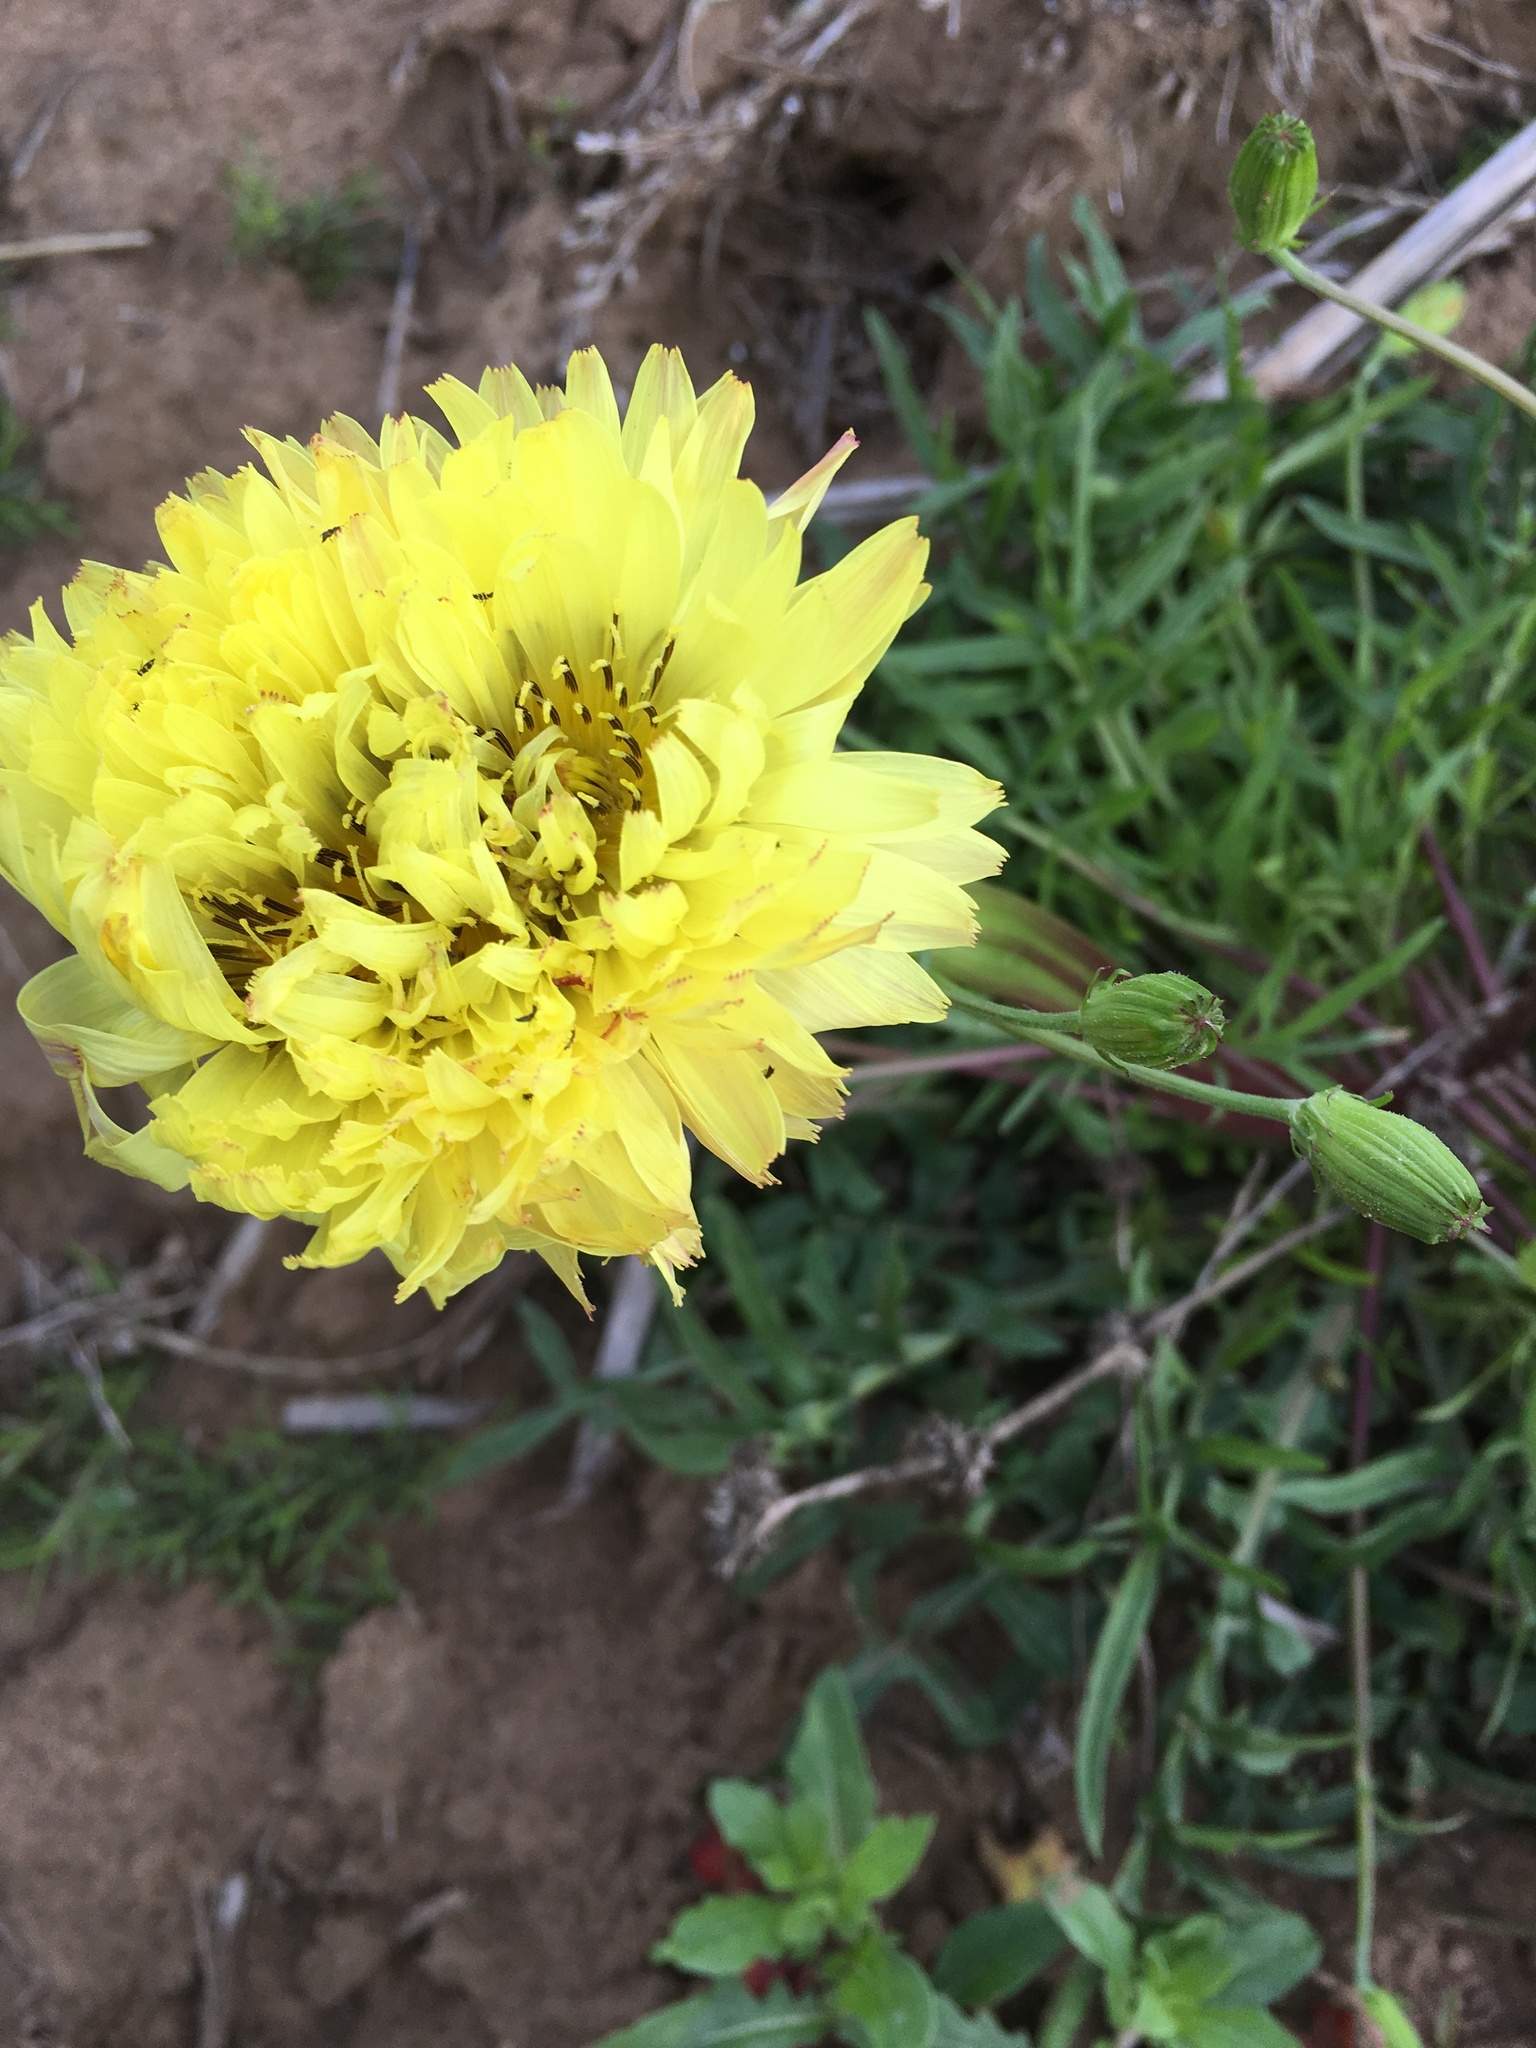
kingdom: Plantae
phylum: Tracheophyta
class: Magnoliopsida
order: Asterales
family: Asteraceae
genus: Pyrrhopappus
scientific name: Pyrrhopappus pauciflorus
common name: Texas false dandelion
